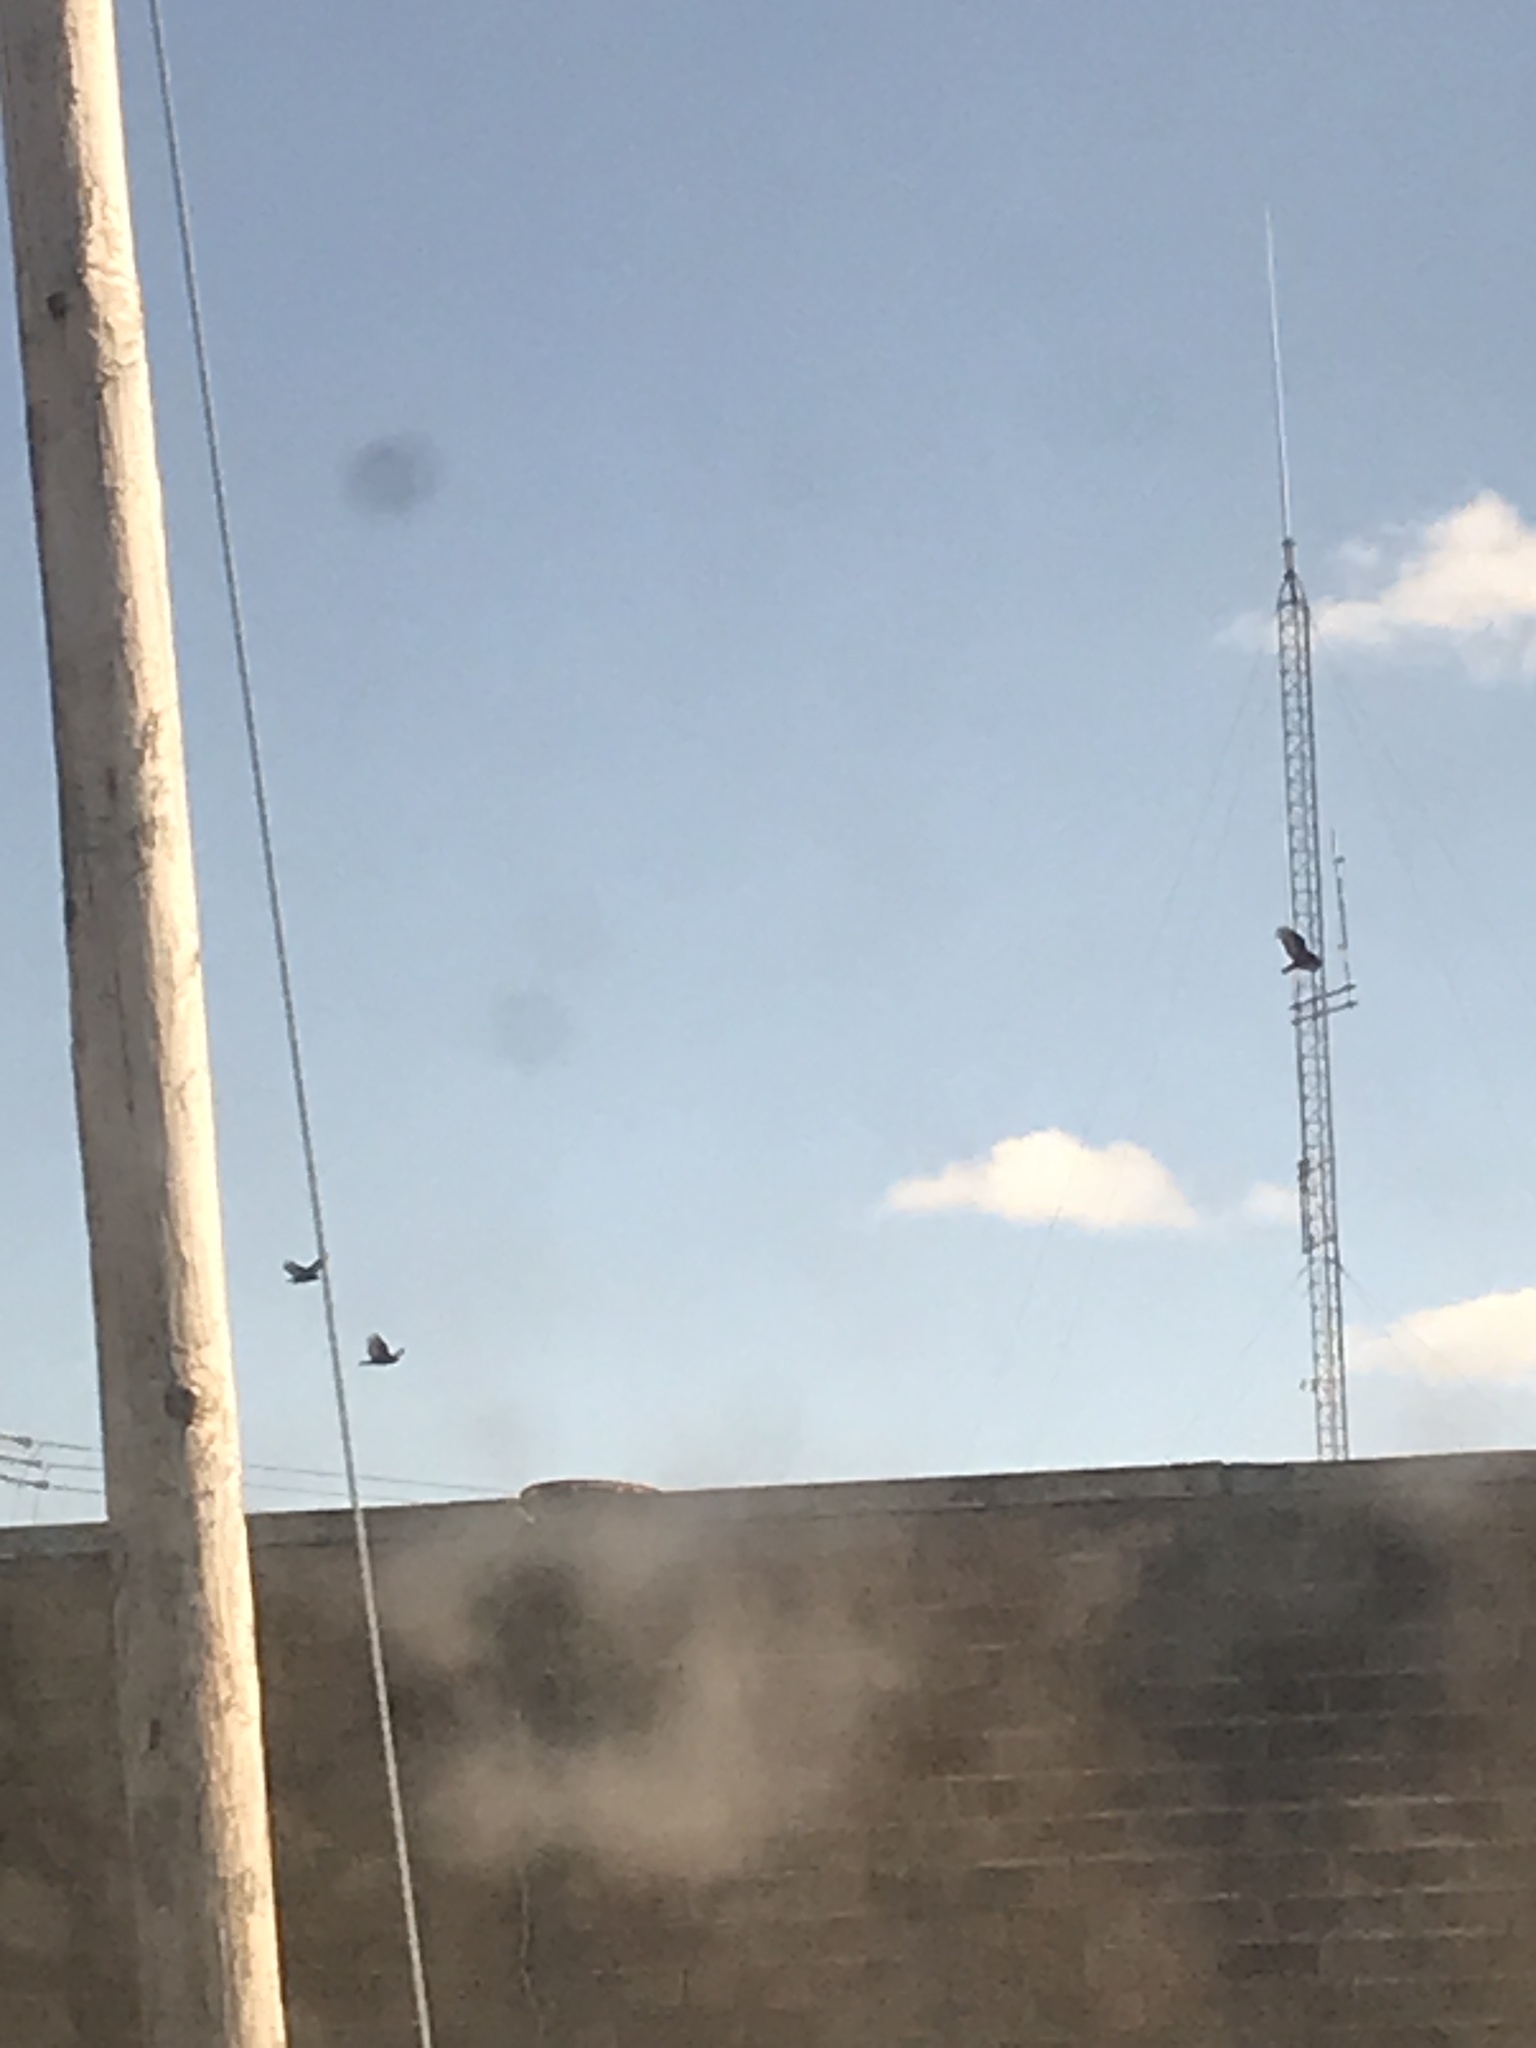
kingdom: Animalia
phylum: Chordata
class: Aves
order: Accipitriformes
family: Cathartidae
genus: Cathartes
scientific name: Cathartes aura
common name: Turkey vulture
